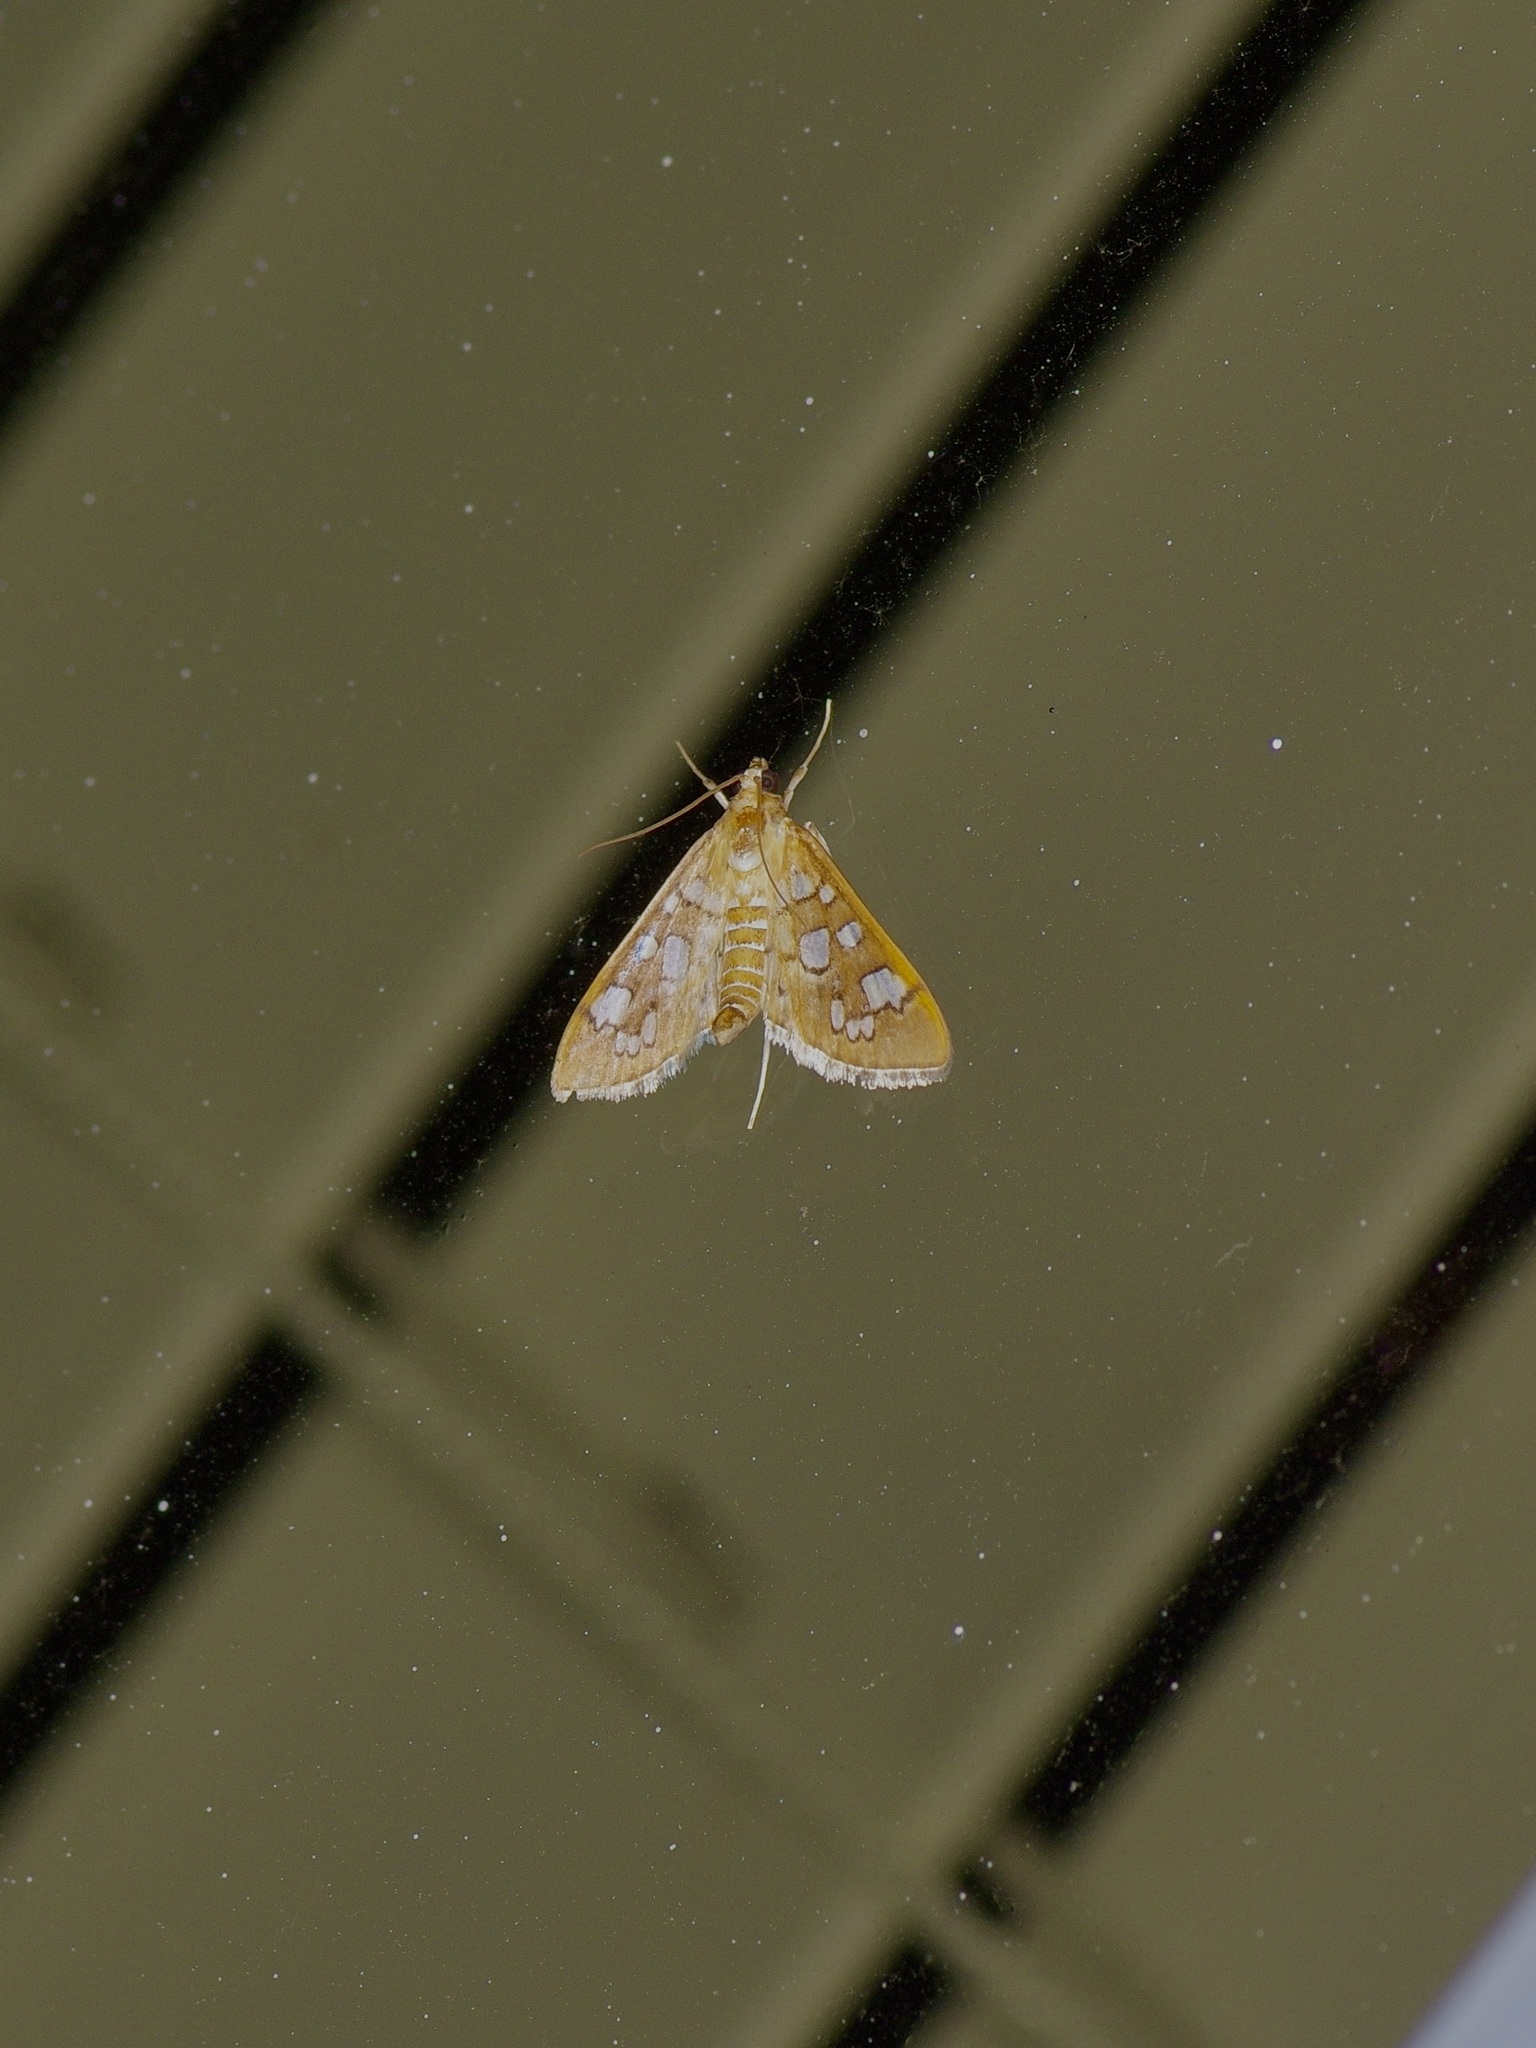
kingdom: Animalia
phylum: Arthropoda
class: Insecta
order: Lepidoptera
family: Crambidae
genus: Samea
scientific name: Samea baccatalis
